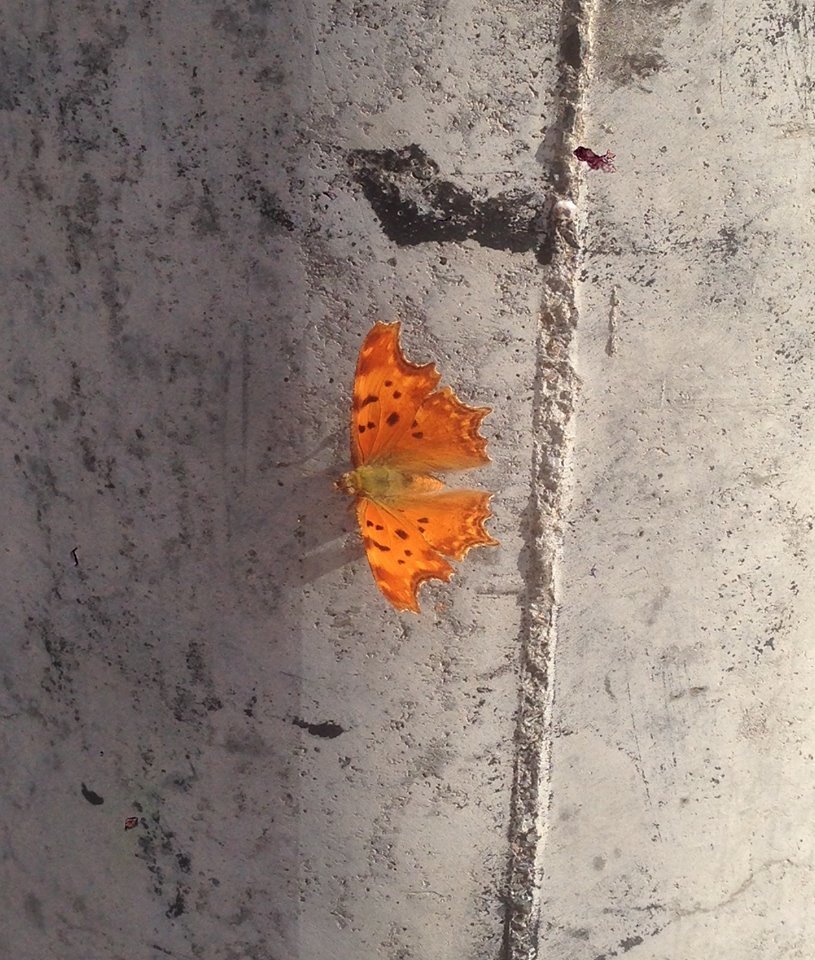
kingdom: Animalia
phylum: Arthropoda
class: Insecta
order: Lepidoptera
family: Nymphalidae
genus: Polygonia
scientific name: Polygonia egea
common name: Southern comma
